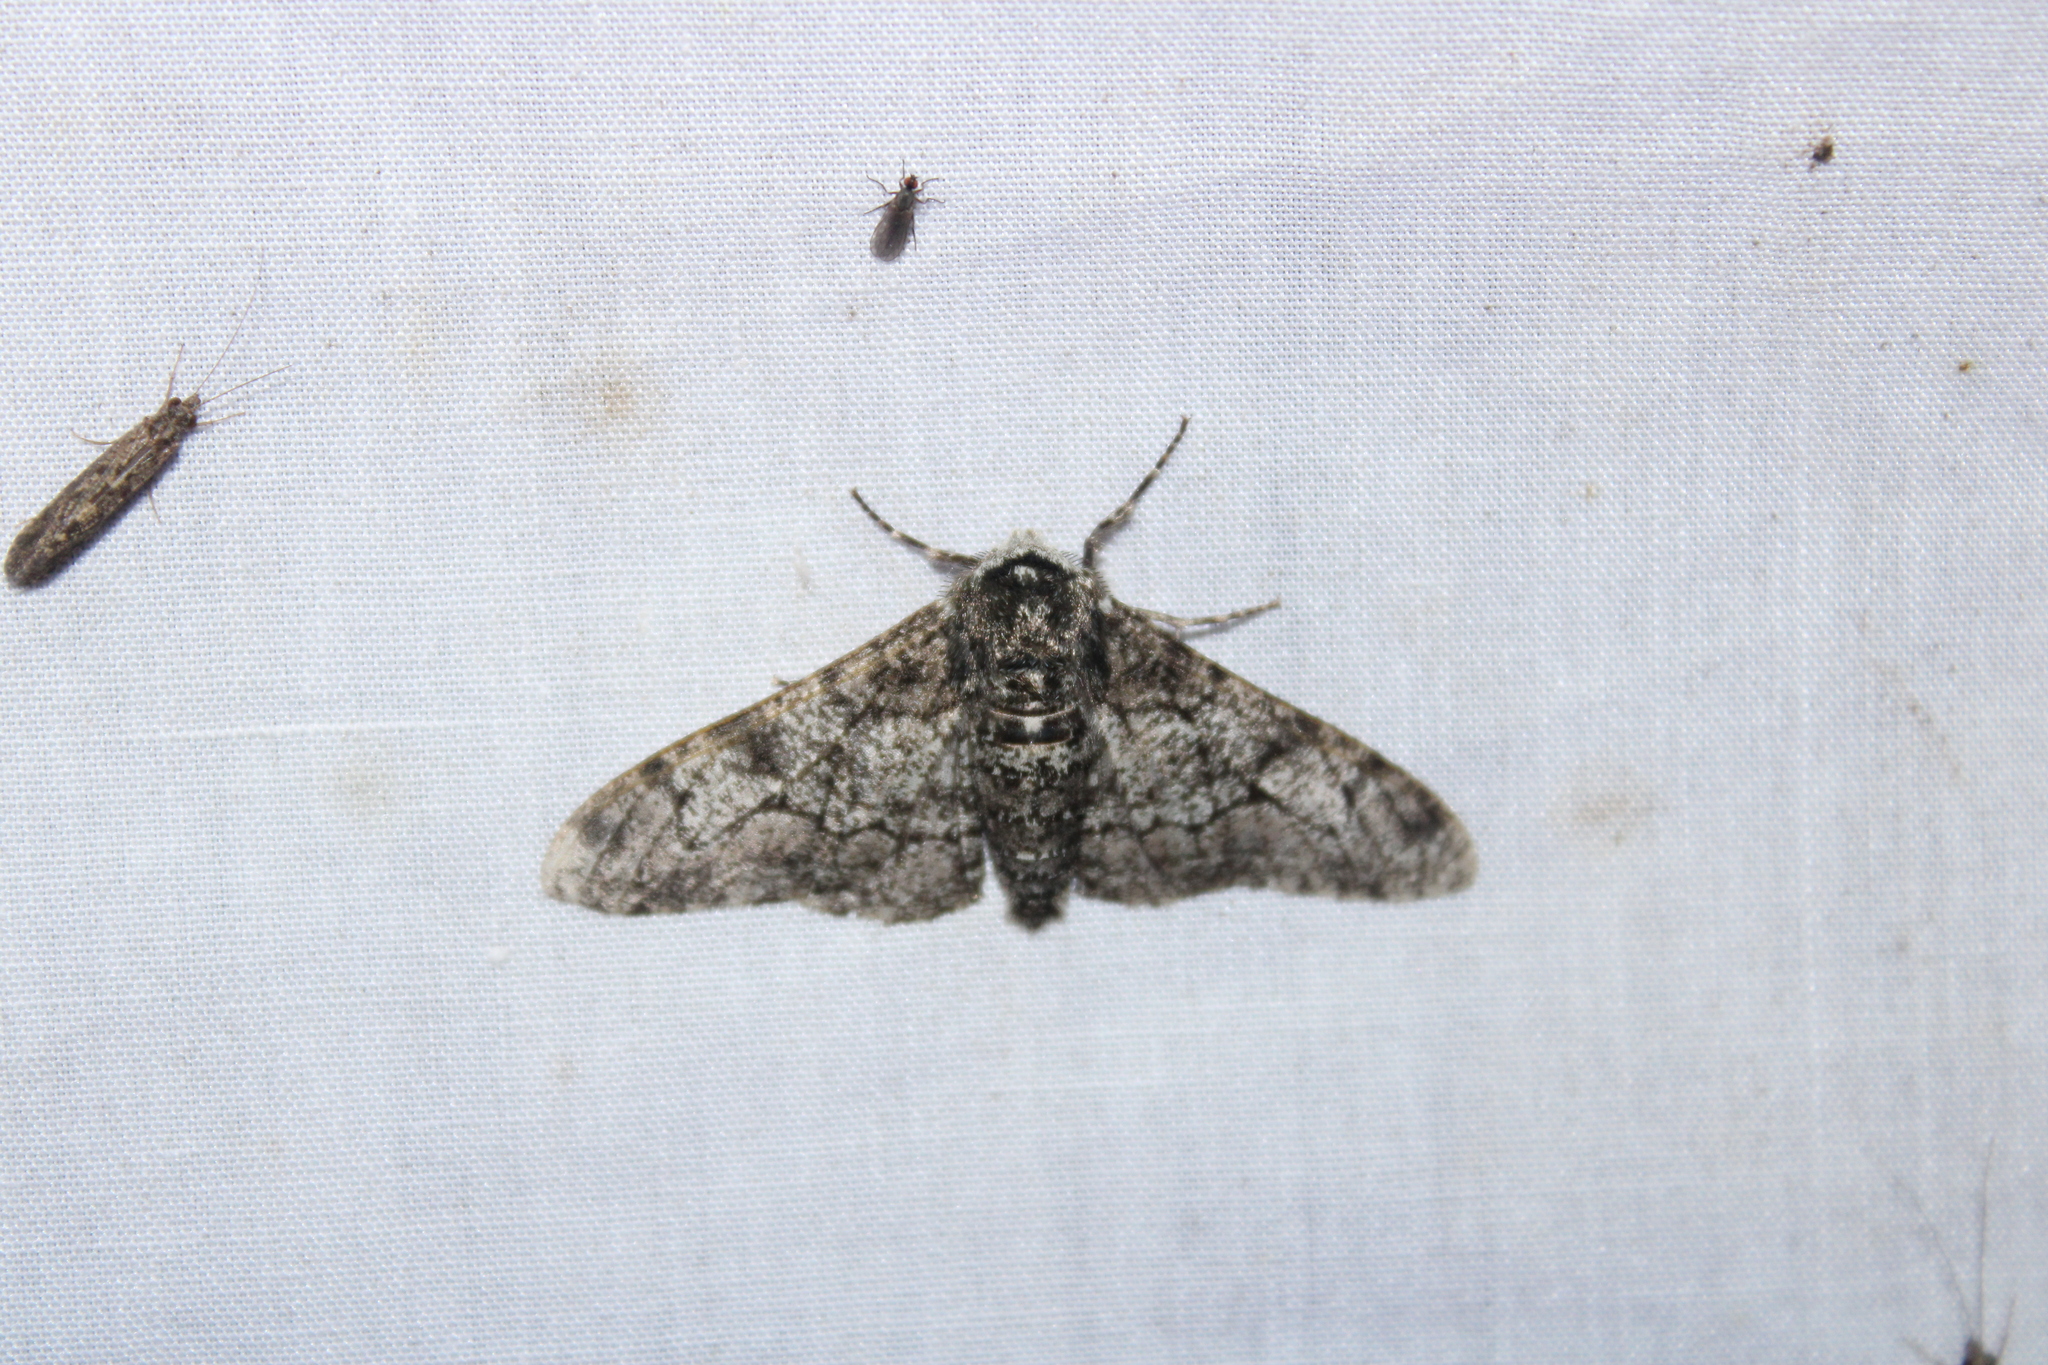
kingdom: Animalia
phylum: Arthropoda
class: Insecta
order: Lepidoptera
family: Geometridae
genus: Biston
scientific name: Biston betularia
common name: Peppered moth
